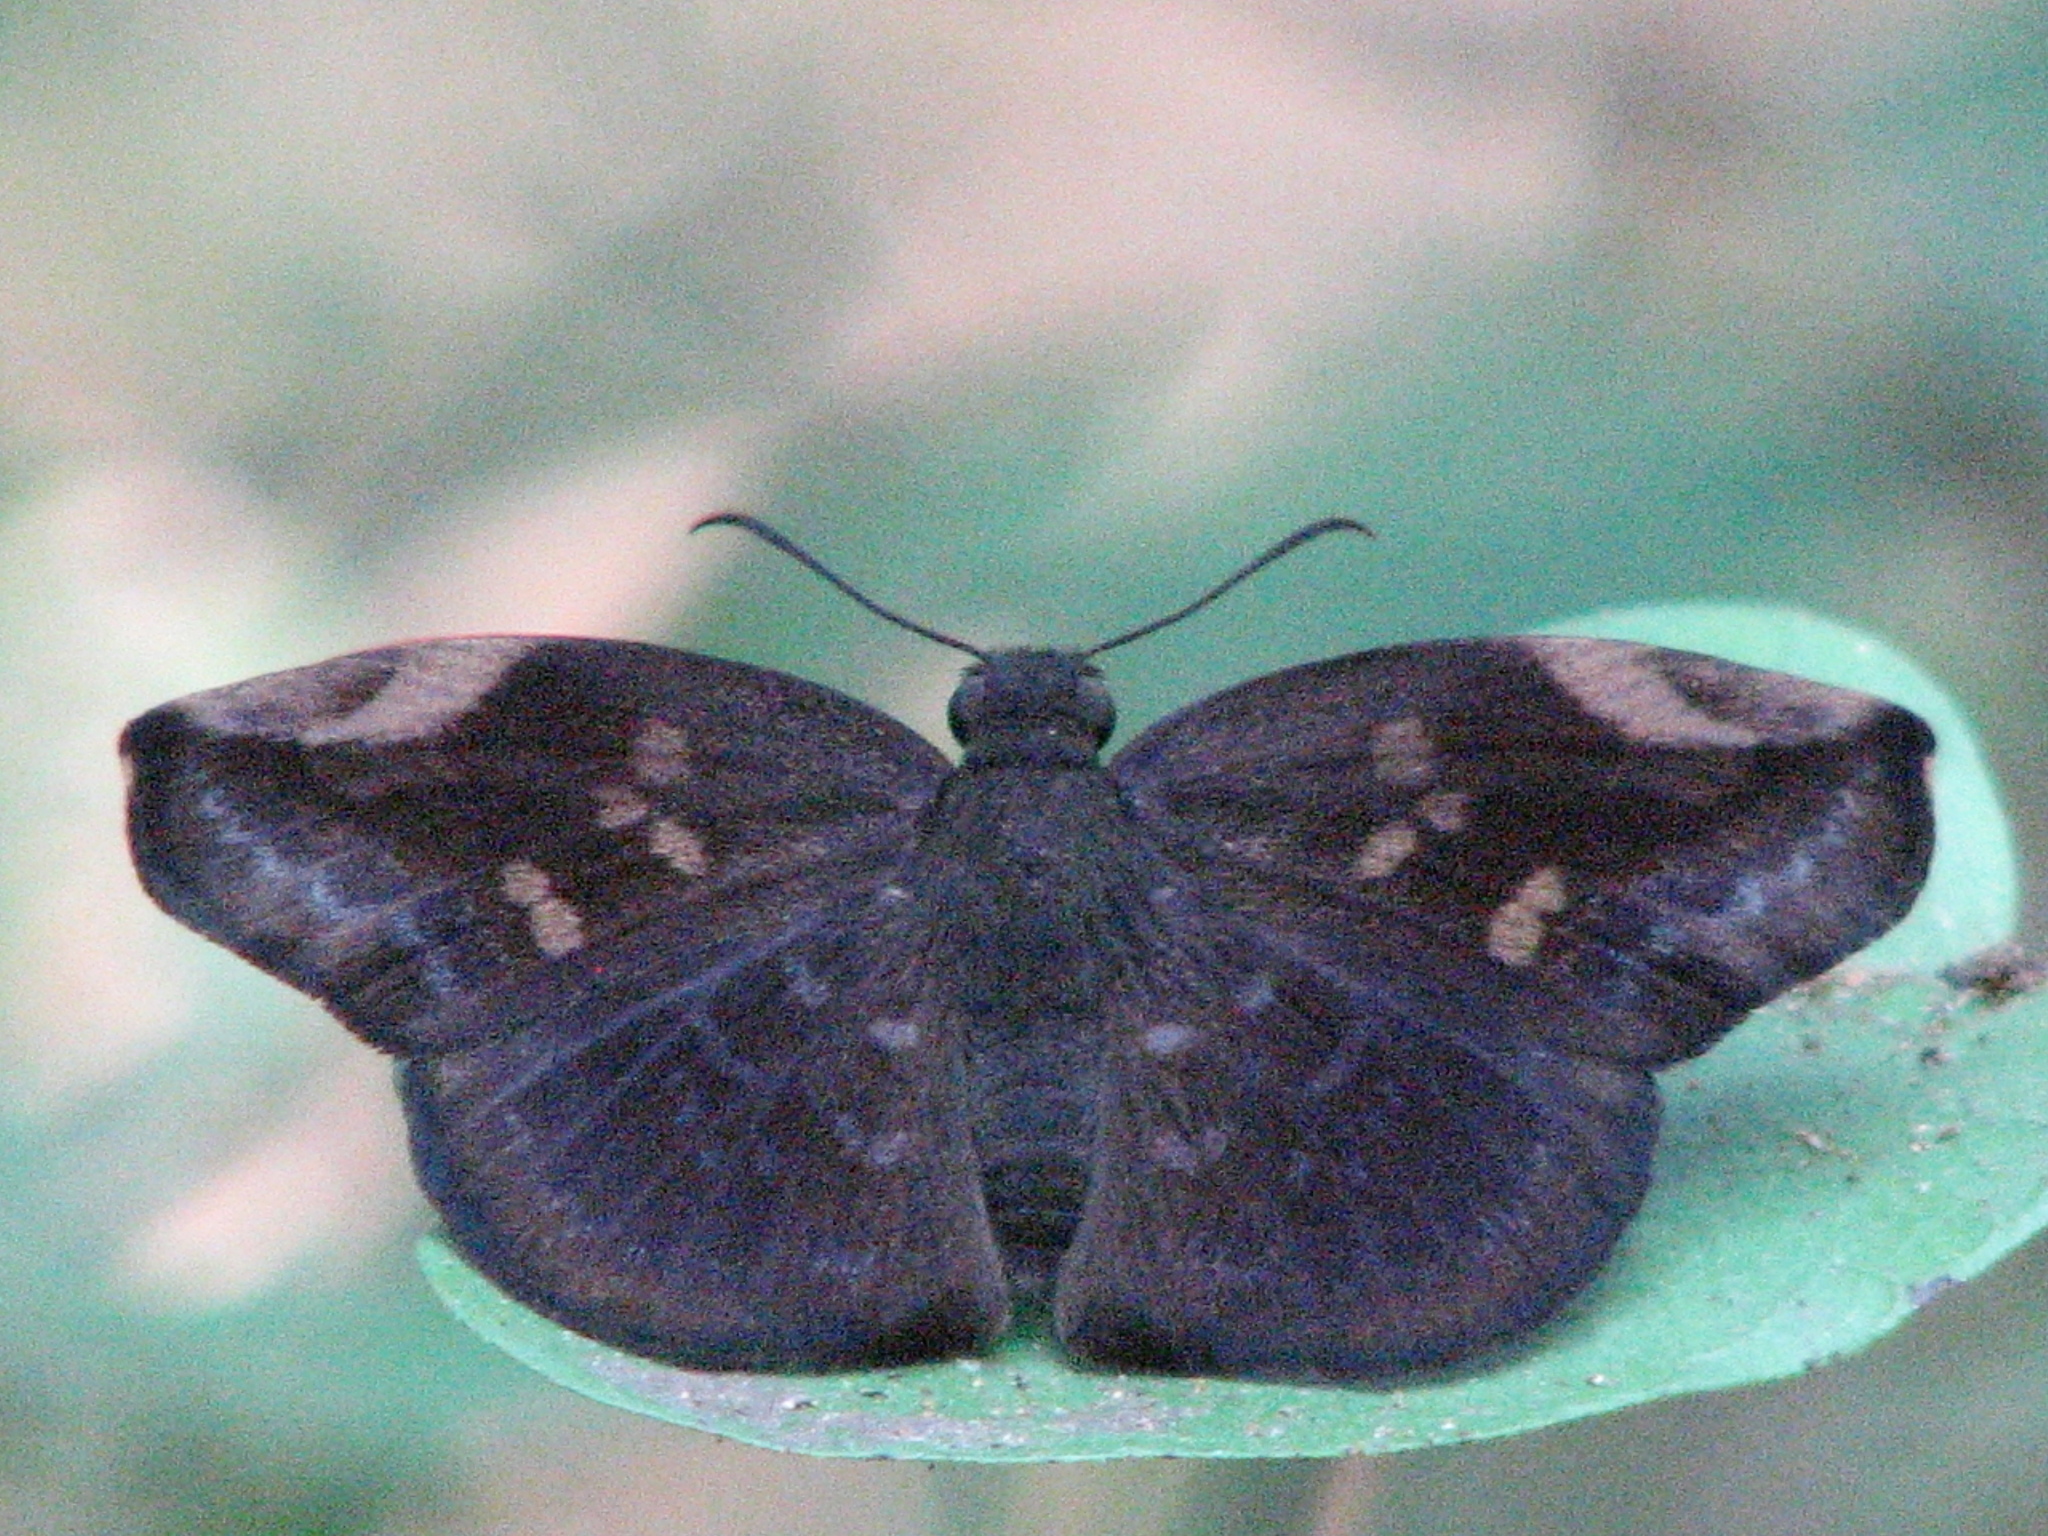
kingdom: Animalia
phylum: Arthropoda
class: Insecta
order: Lepidoptera
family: Hesperiidae
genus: Achlyodes
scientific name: Achlyodes thraso
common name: Sickle-winged skipper
